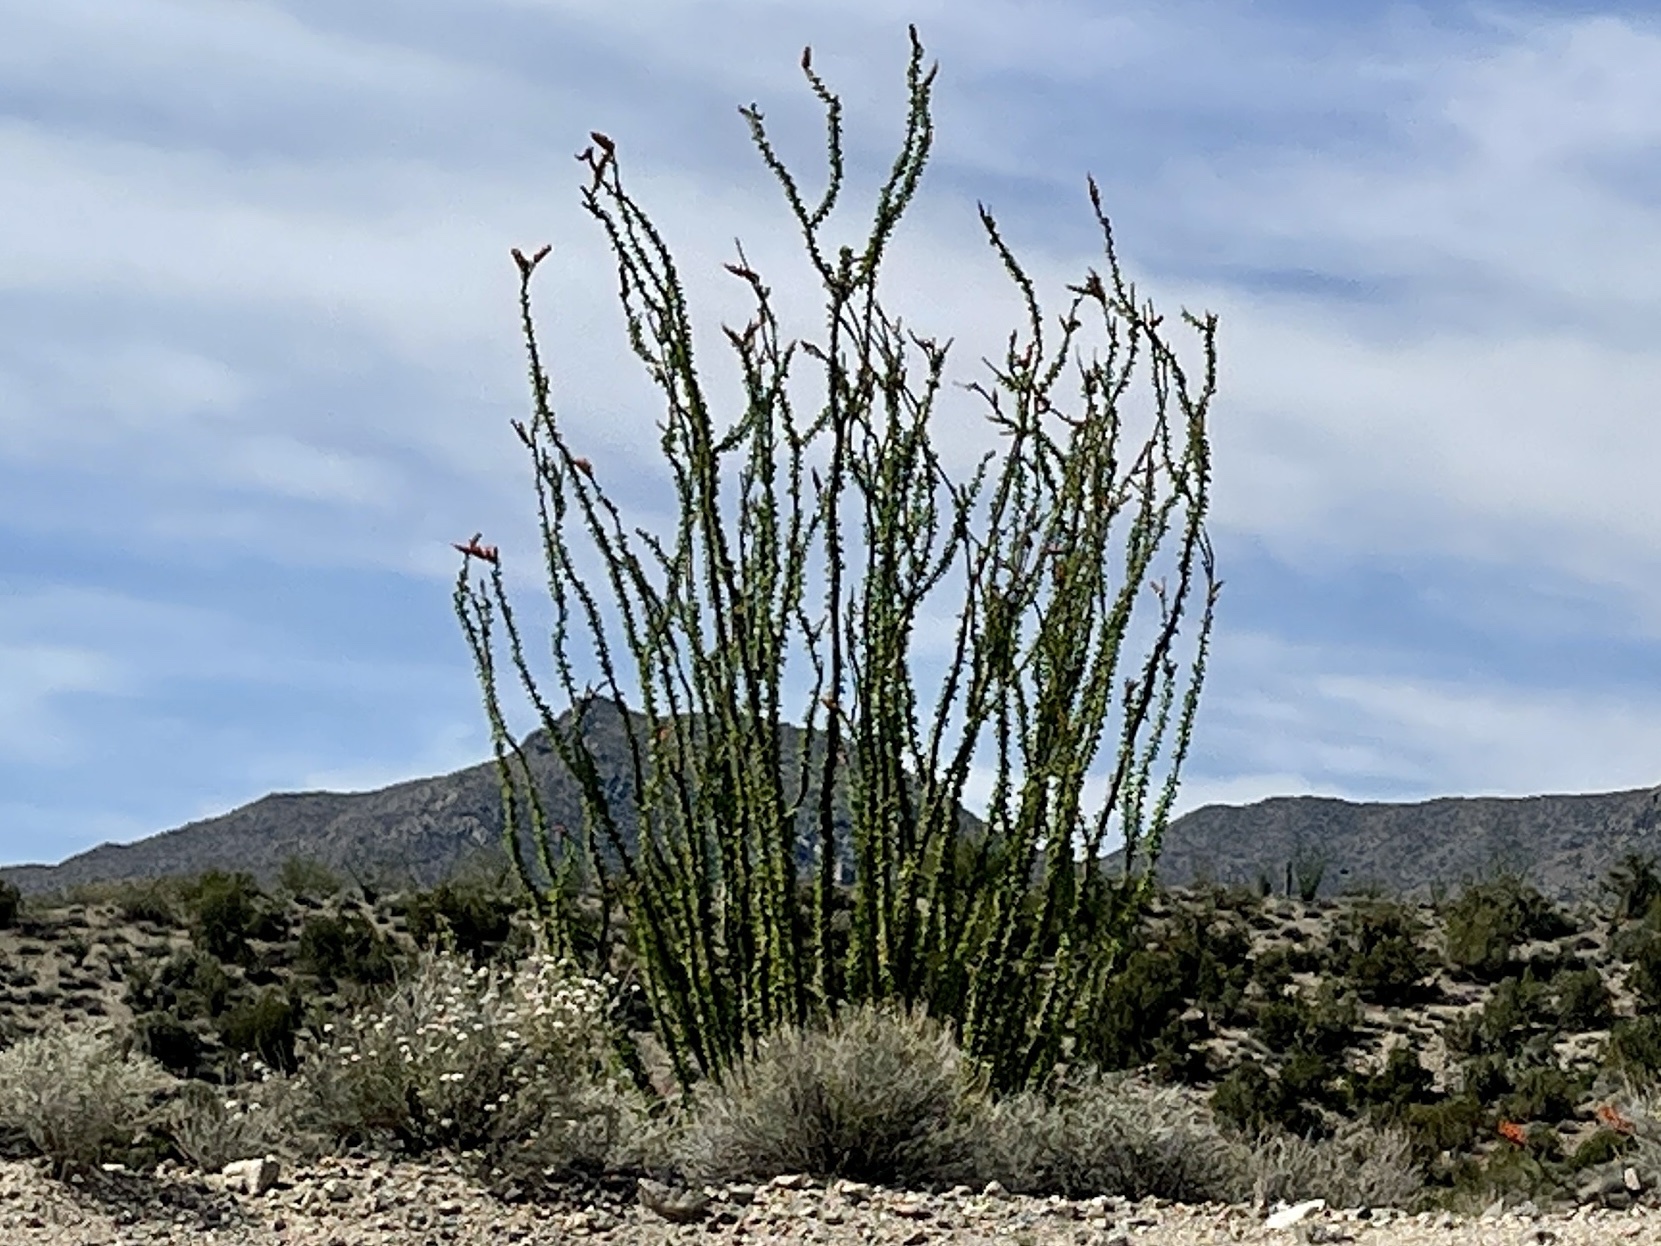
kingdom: Plantae
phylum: Tracheophyta
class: Magnoliopsida
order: Ericales
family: Fouquieriaceae
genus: Fouquieria
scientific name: Fouquieria splendens
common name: Vine-cactus
